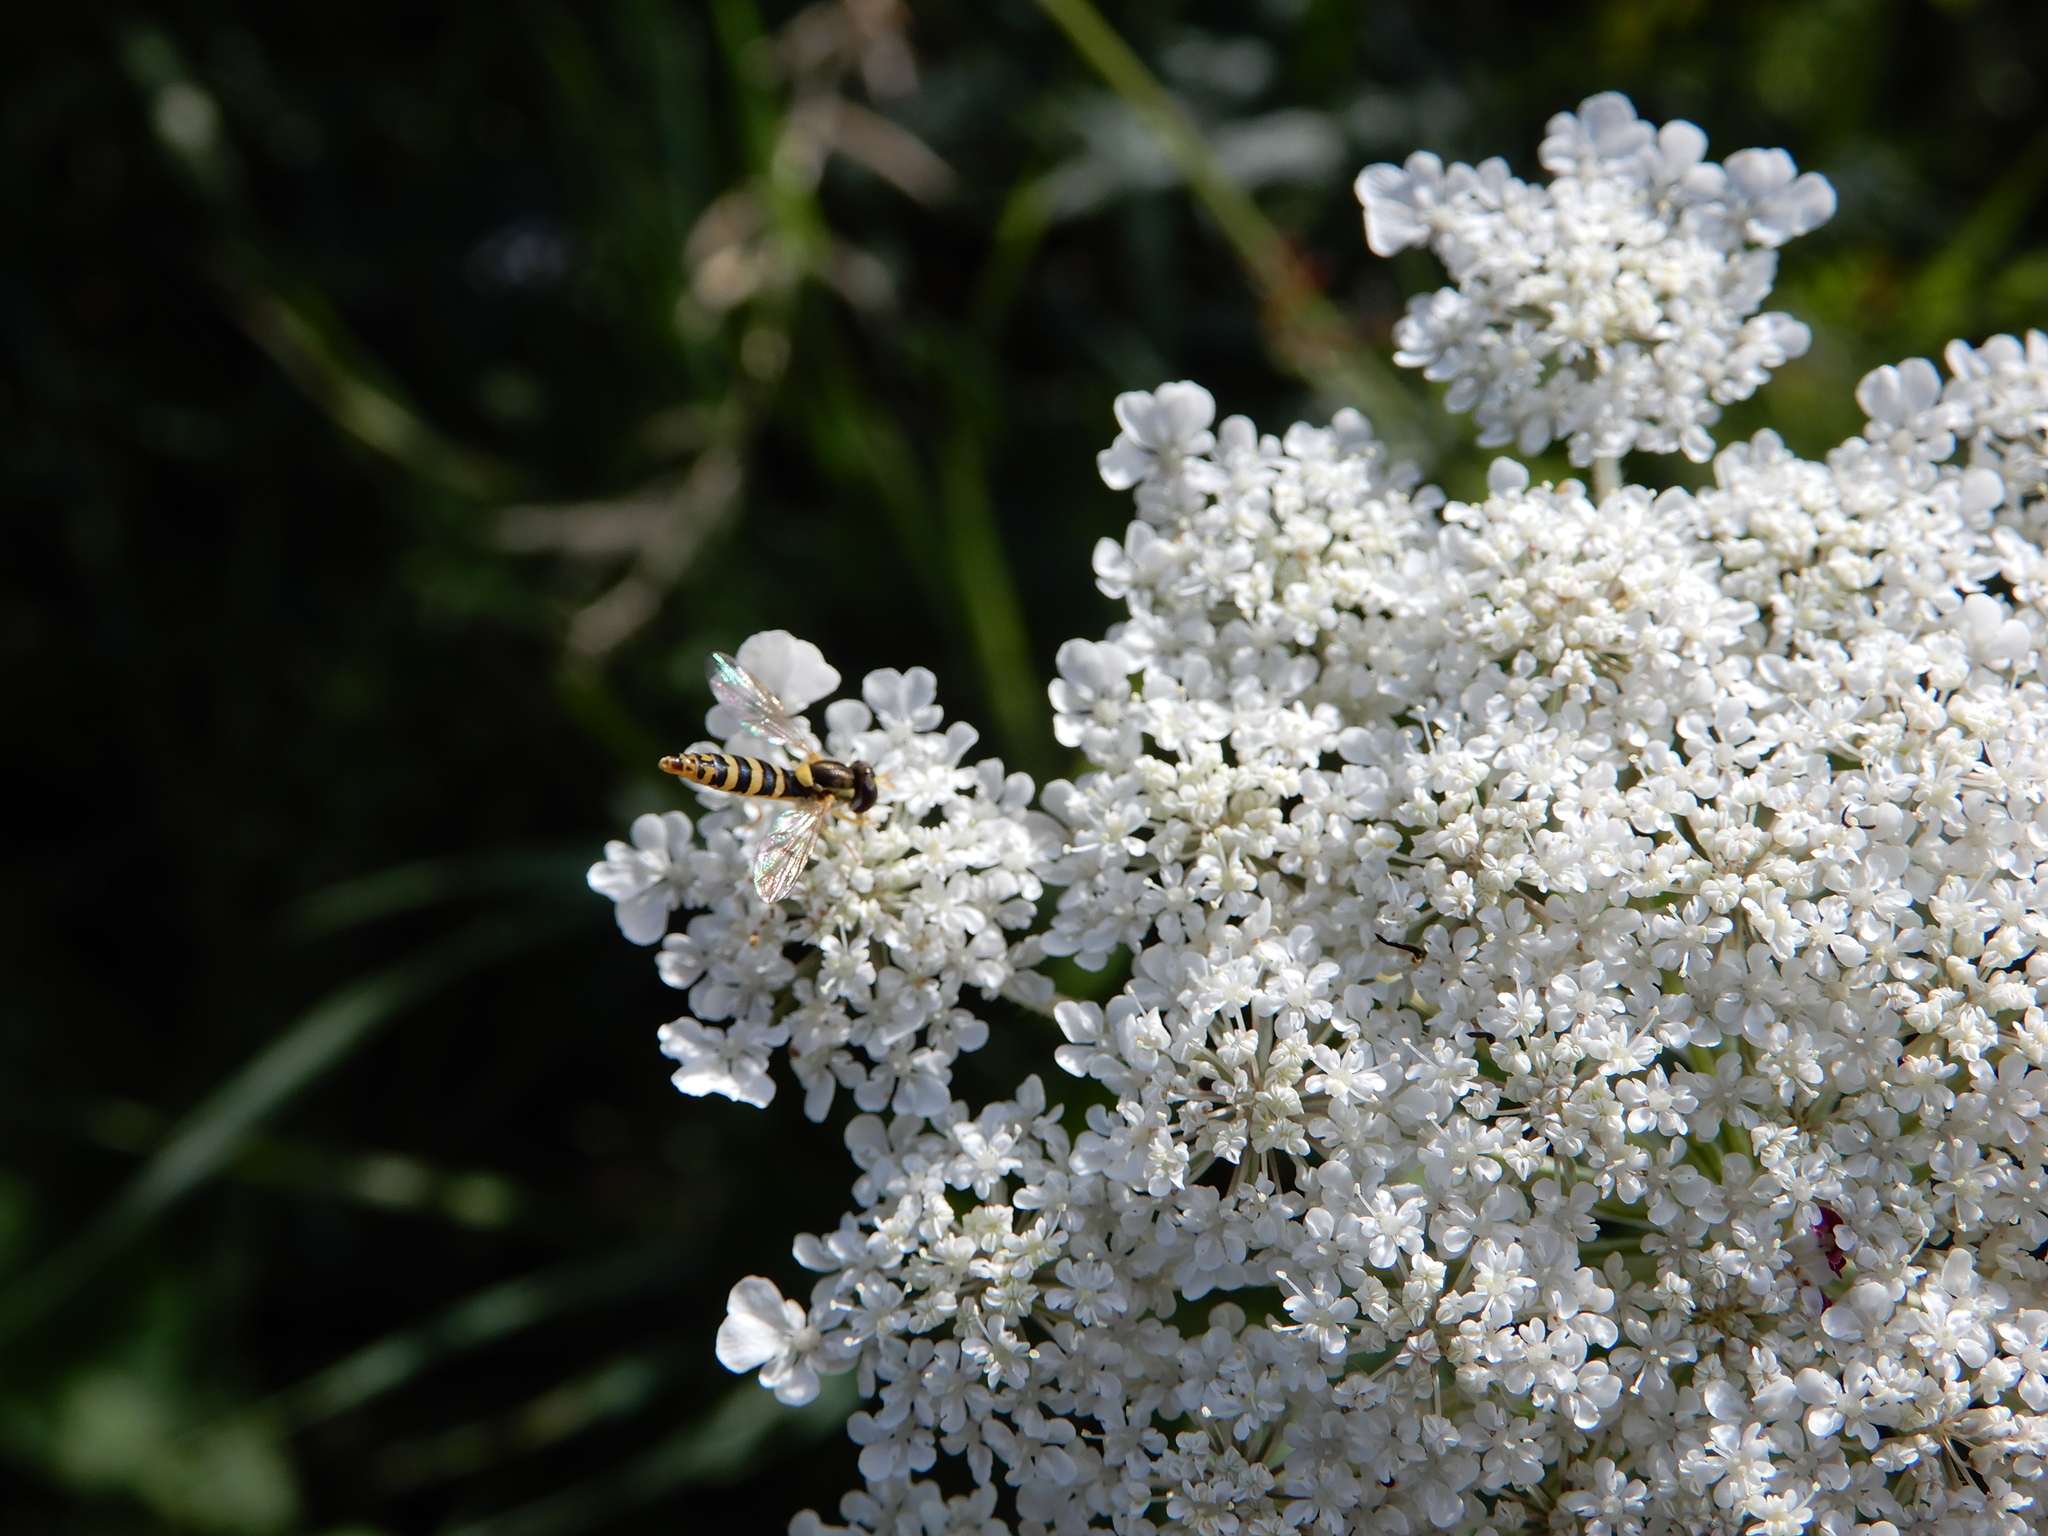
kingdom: Animalia
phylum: Arthropoda
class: Insecta
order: Diptera
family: Syrphidae
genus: Sphaerophoria
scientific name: Sphaerophoria
